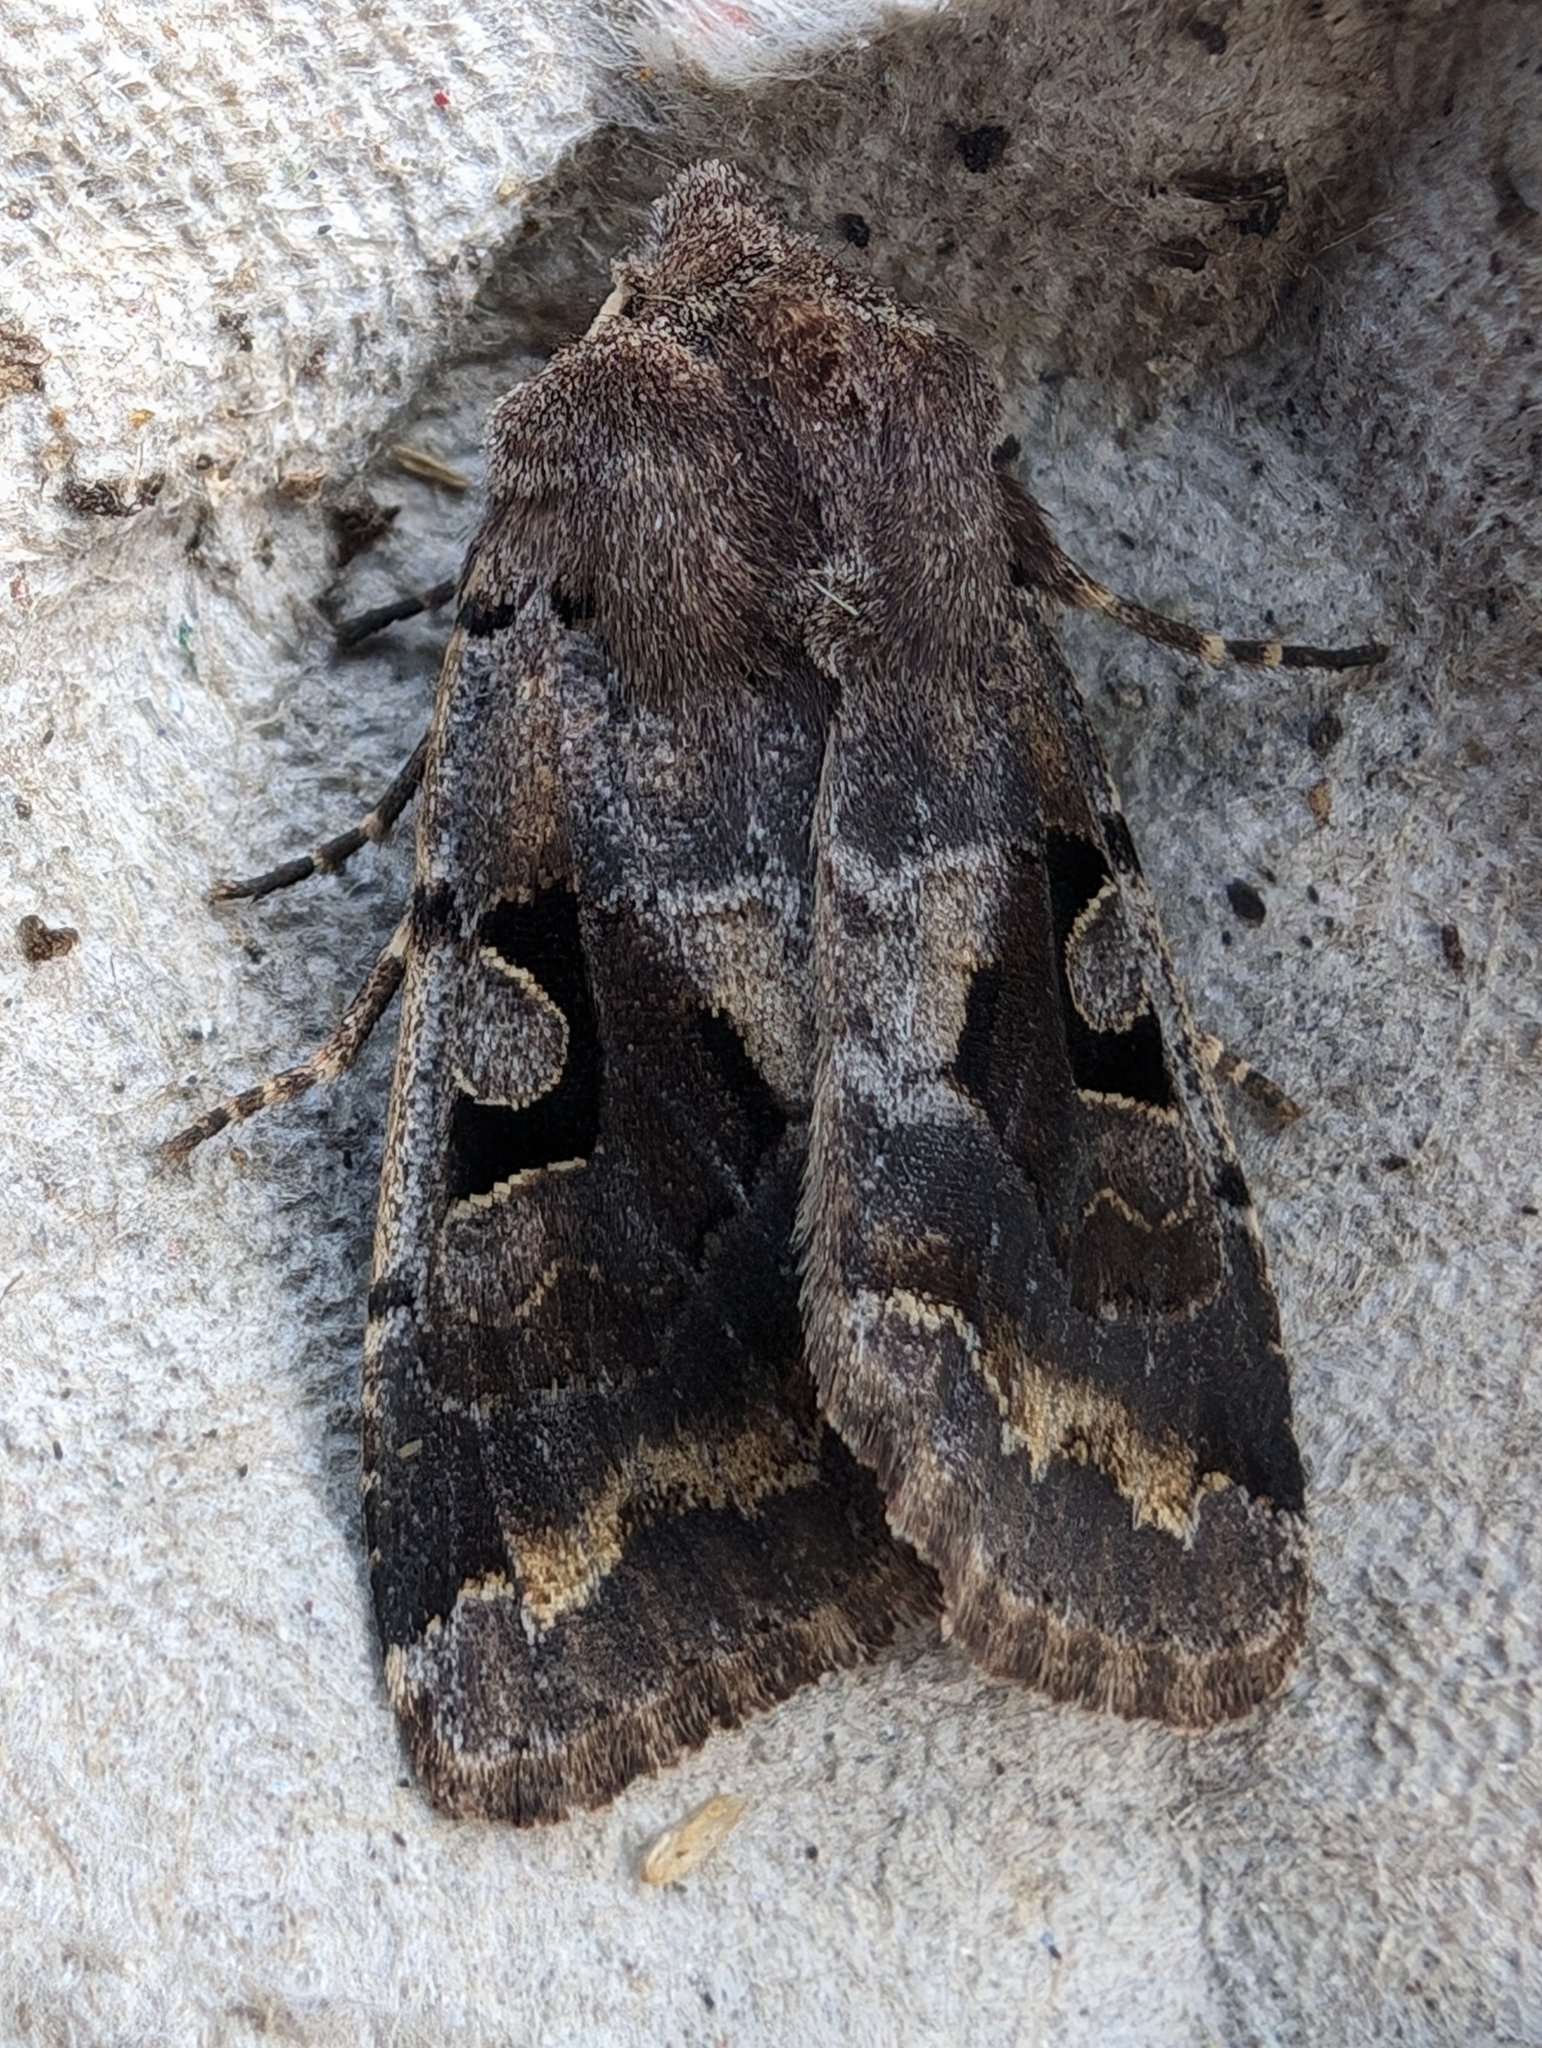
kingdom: Animalia
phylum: Arthropoda
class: Insecta
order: Lepidoptera
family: Noctuidae
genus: Orthosia
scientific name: Orthosia gothica
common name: Hebrew character
